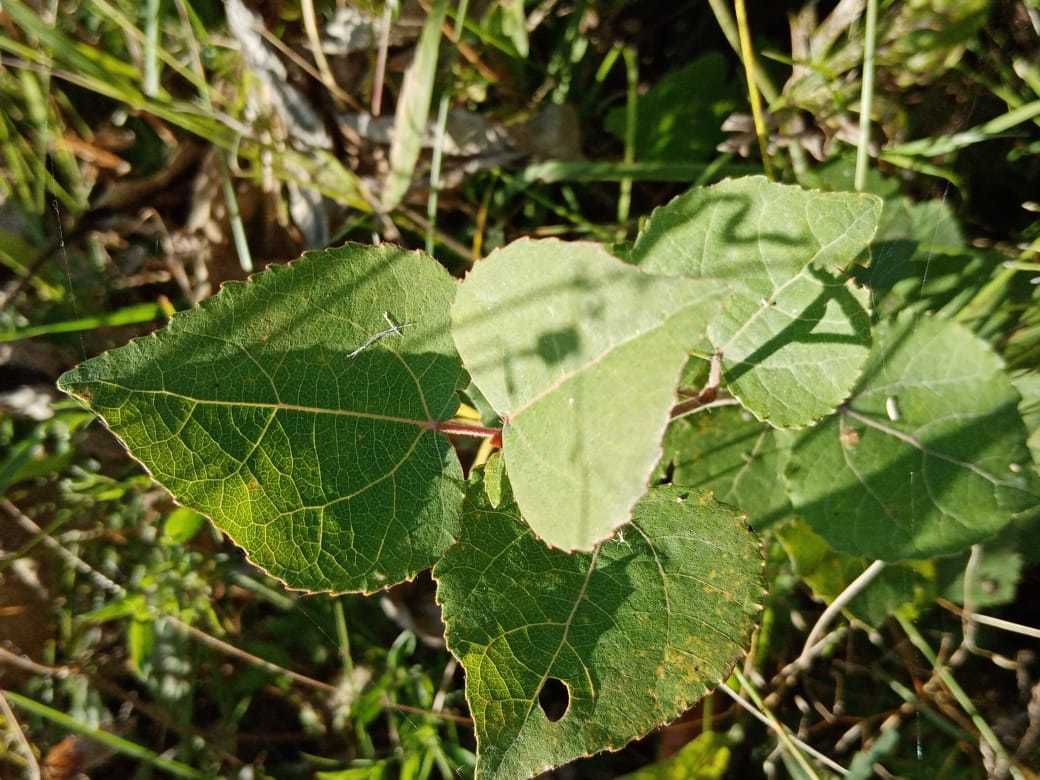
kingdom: Plantae
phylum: Tracheophyta
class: Magnoliopsida
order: Malpighiales
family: Salicaceae
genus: Populus
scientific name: Populus tremula
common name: European aspen
